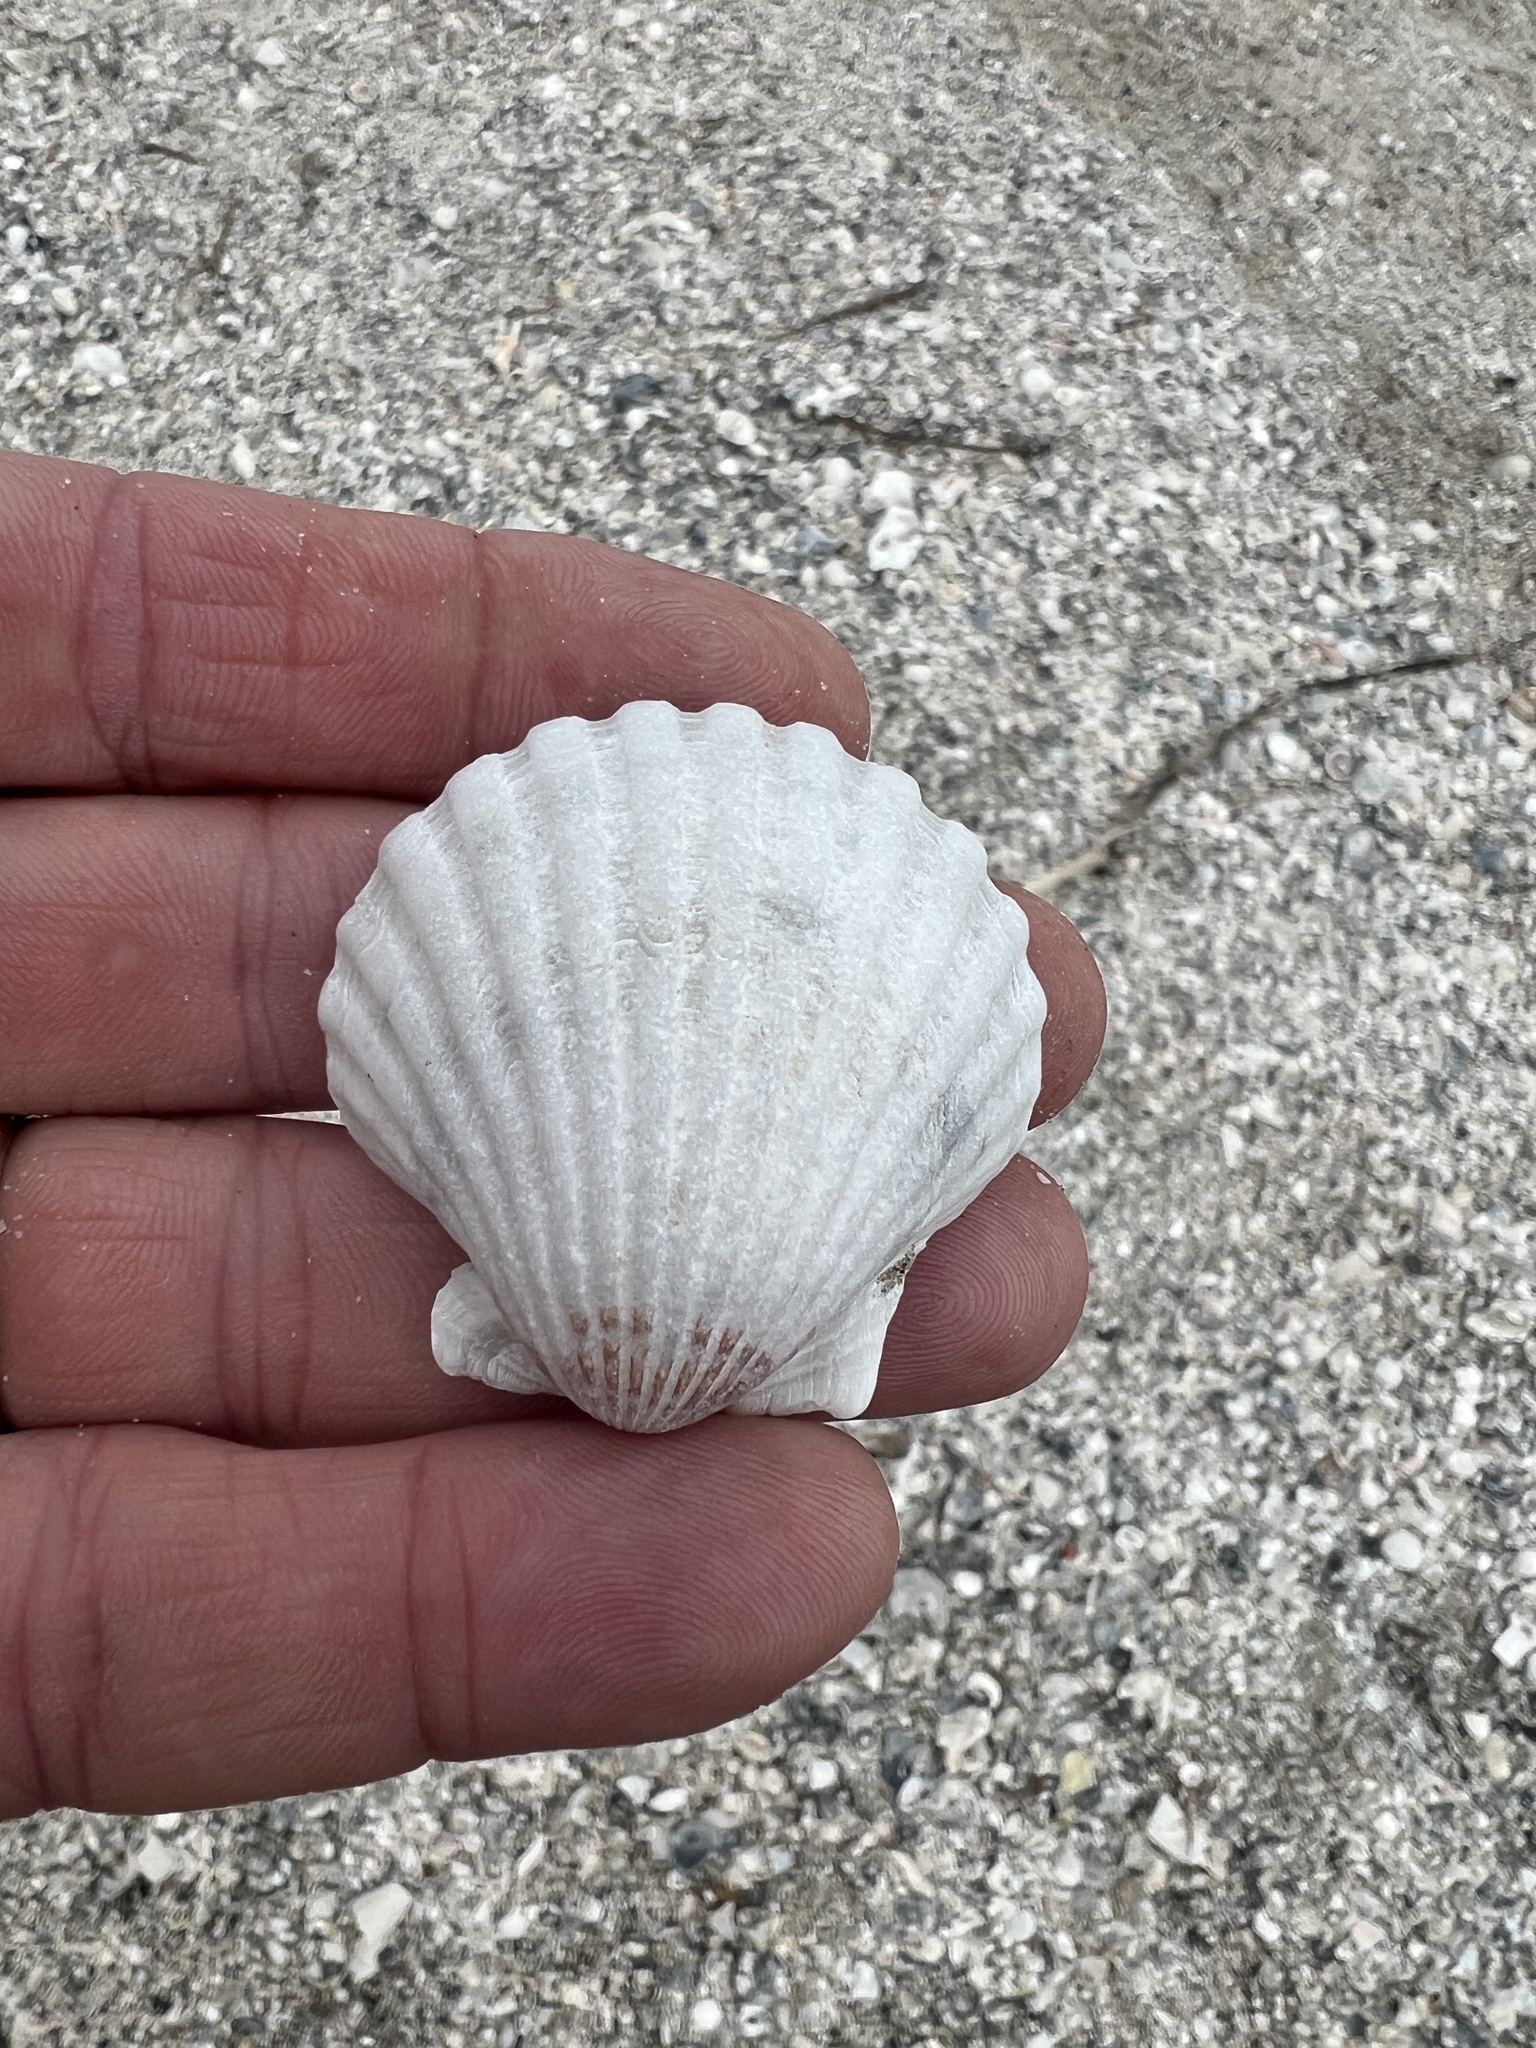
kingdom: Animalia
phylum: Mollusca
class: Bivalvia
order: Pectinida
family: Pectinidae
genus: Argopecten
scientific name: Argopecten irradians
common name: Atlantic bay scallop
